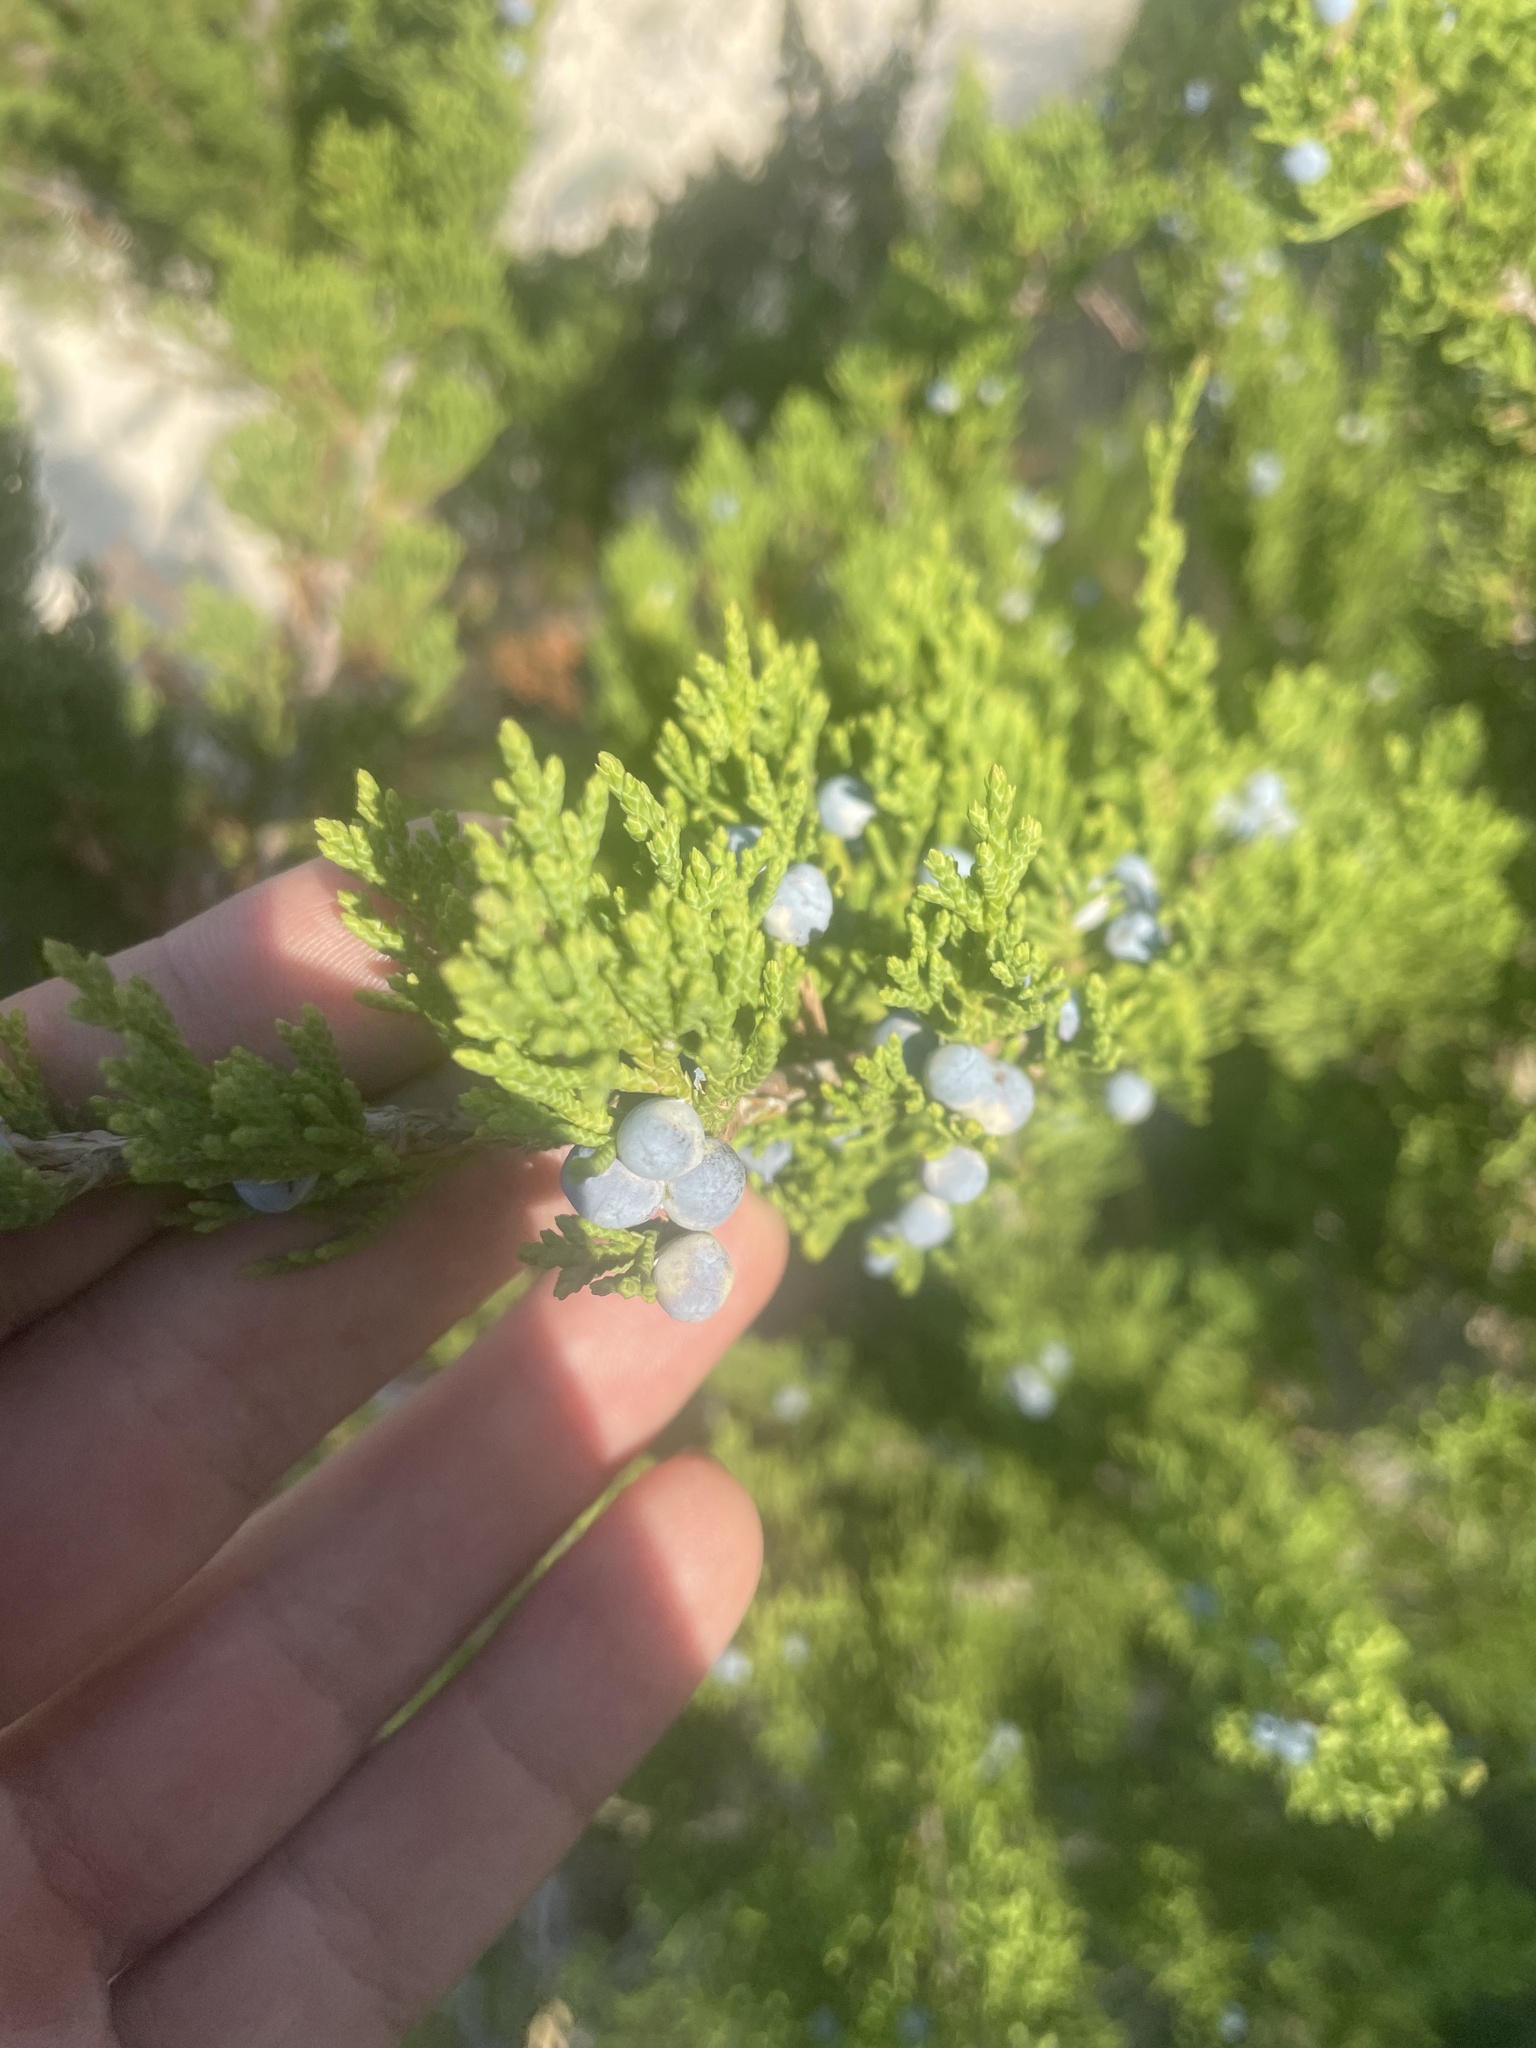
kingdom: Plantae
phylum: Tracheophyta
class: Pinopsida
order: Pinales
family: Cupressaceae
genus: Juniperus
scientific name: Juniperus virginiana
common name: Red juniper
